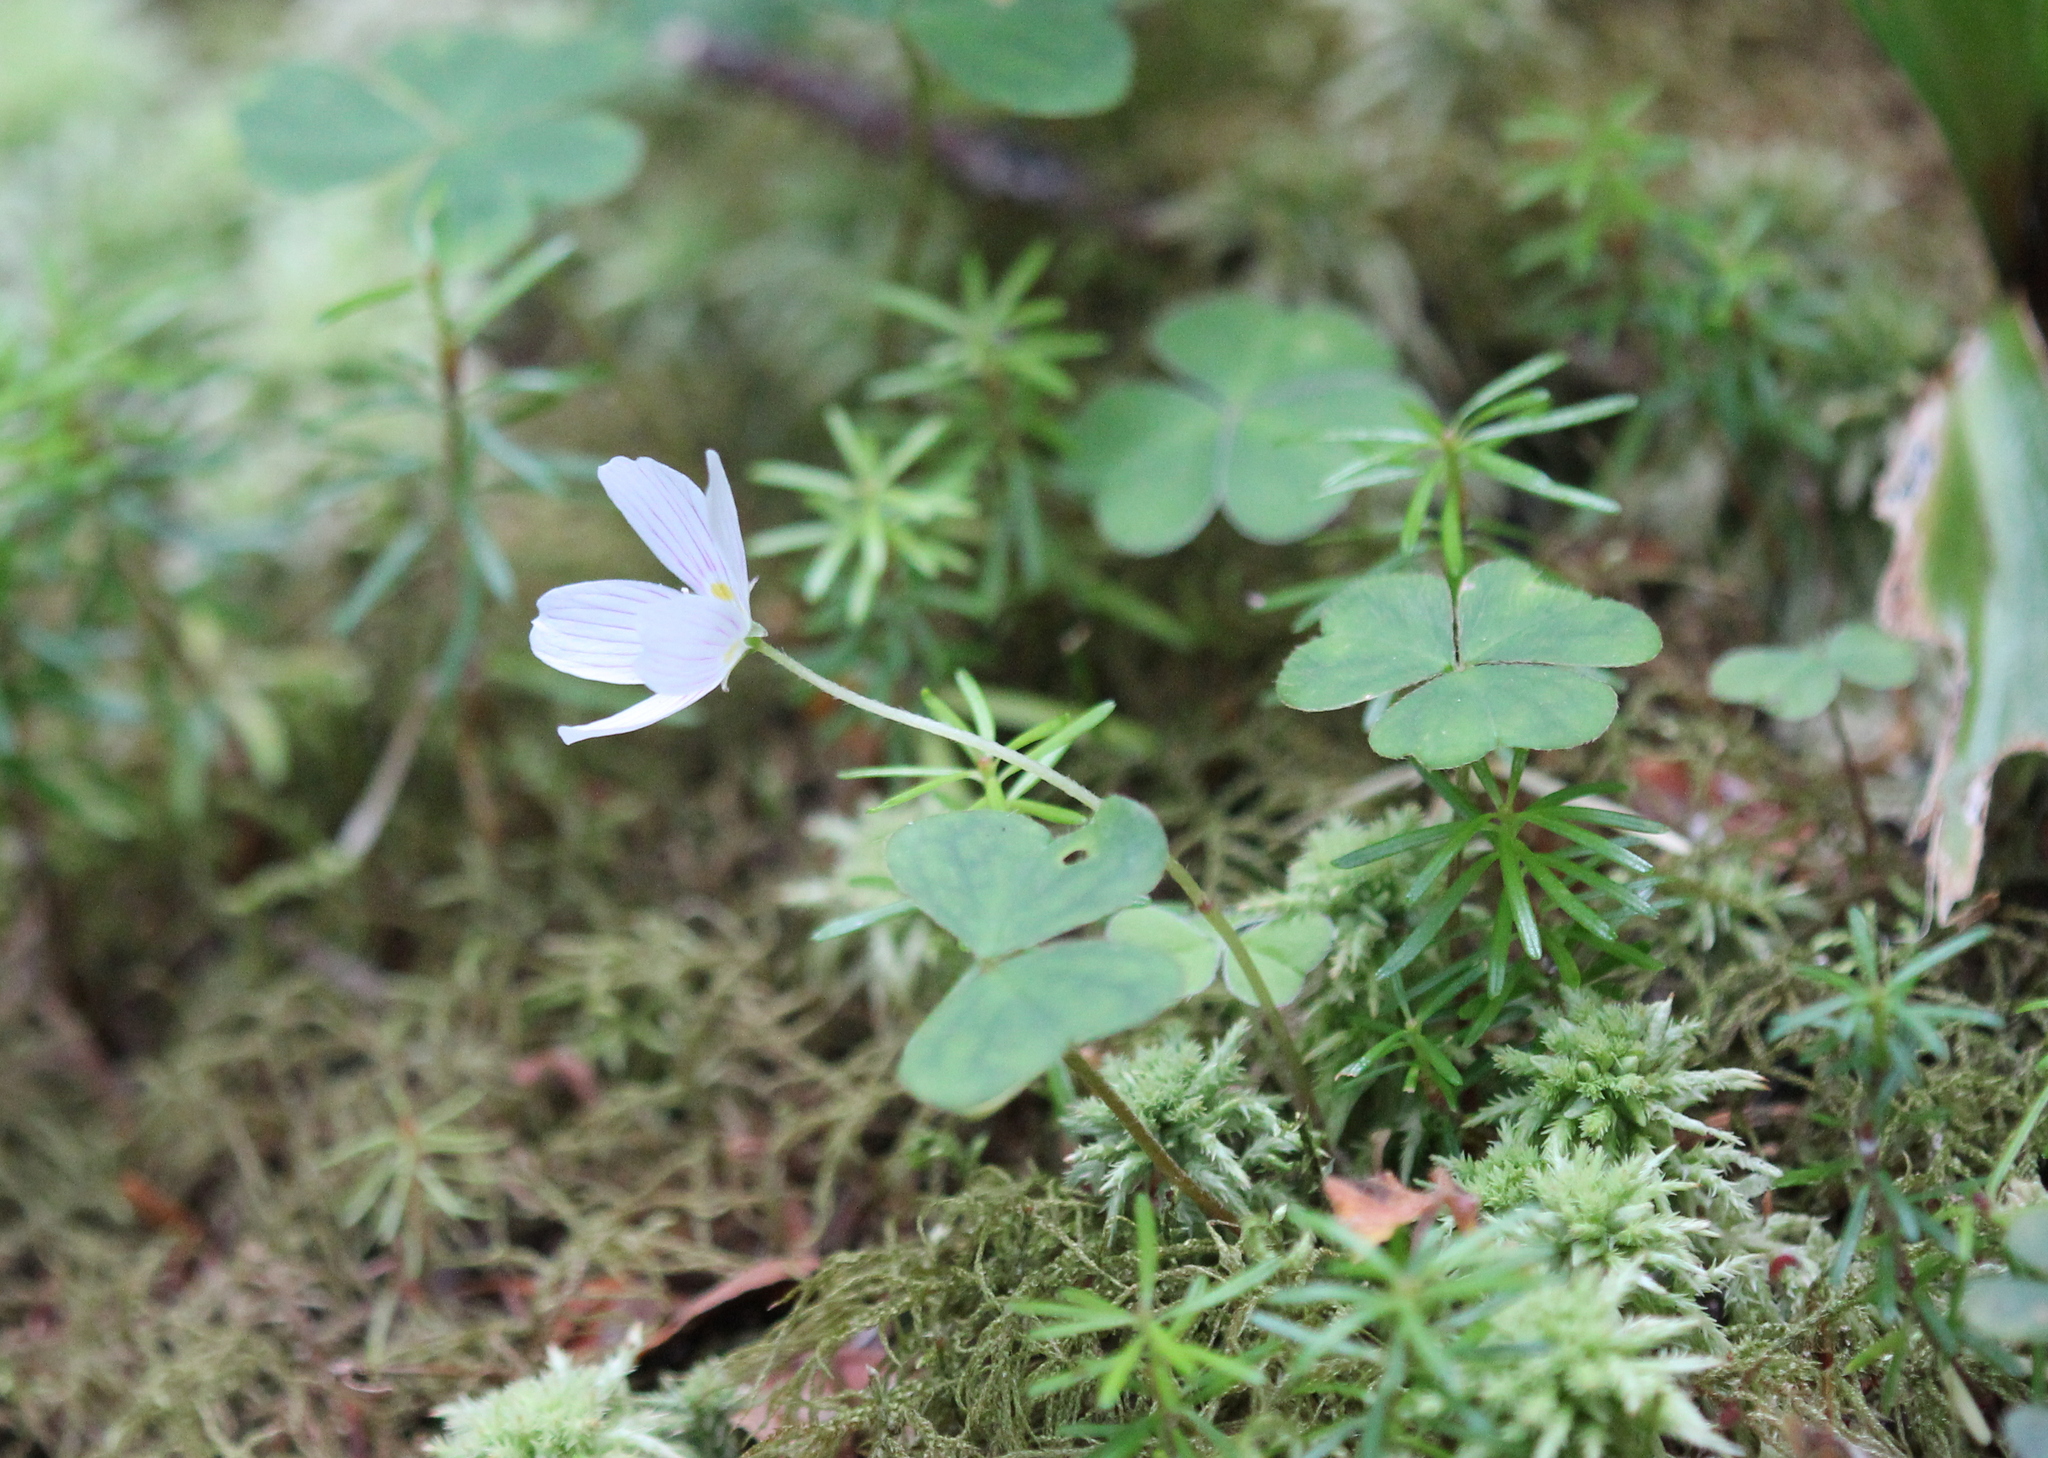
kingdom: Plantae
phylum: Tracheophyta
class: Magnoliopsida
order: Oxalidales
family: Oxalidaceae
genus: Oxalis
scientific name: Oxalis montana
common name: American wood-sorrel
